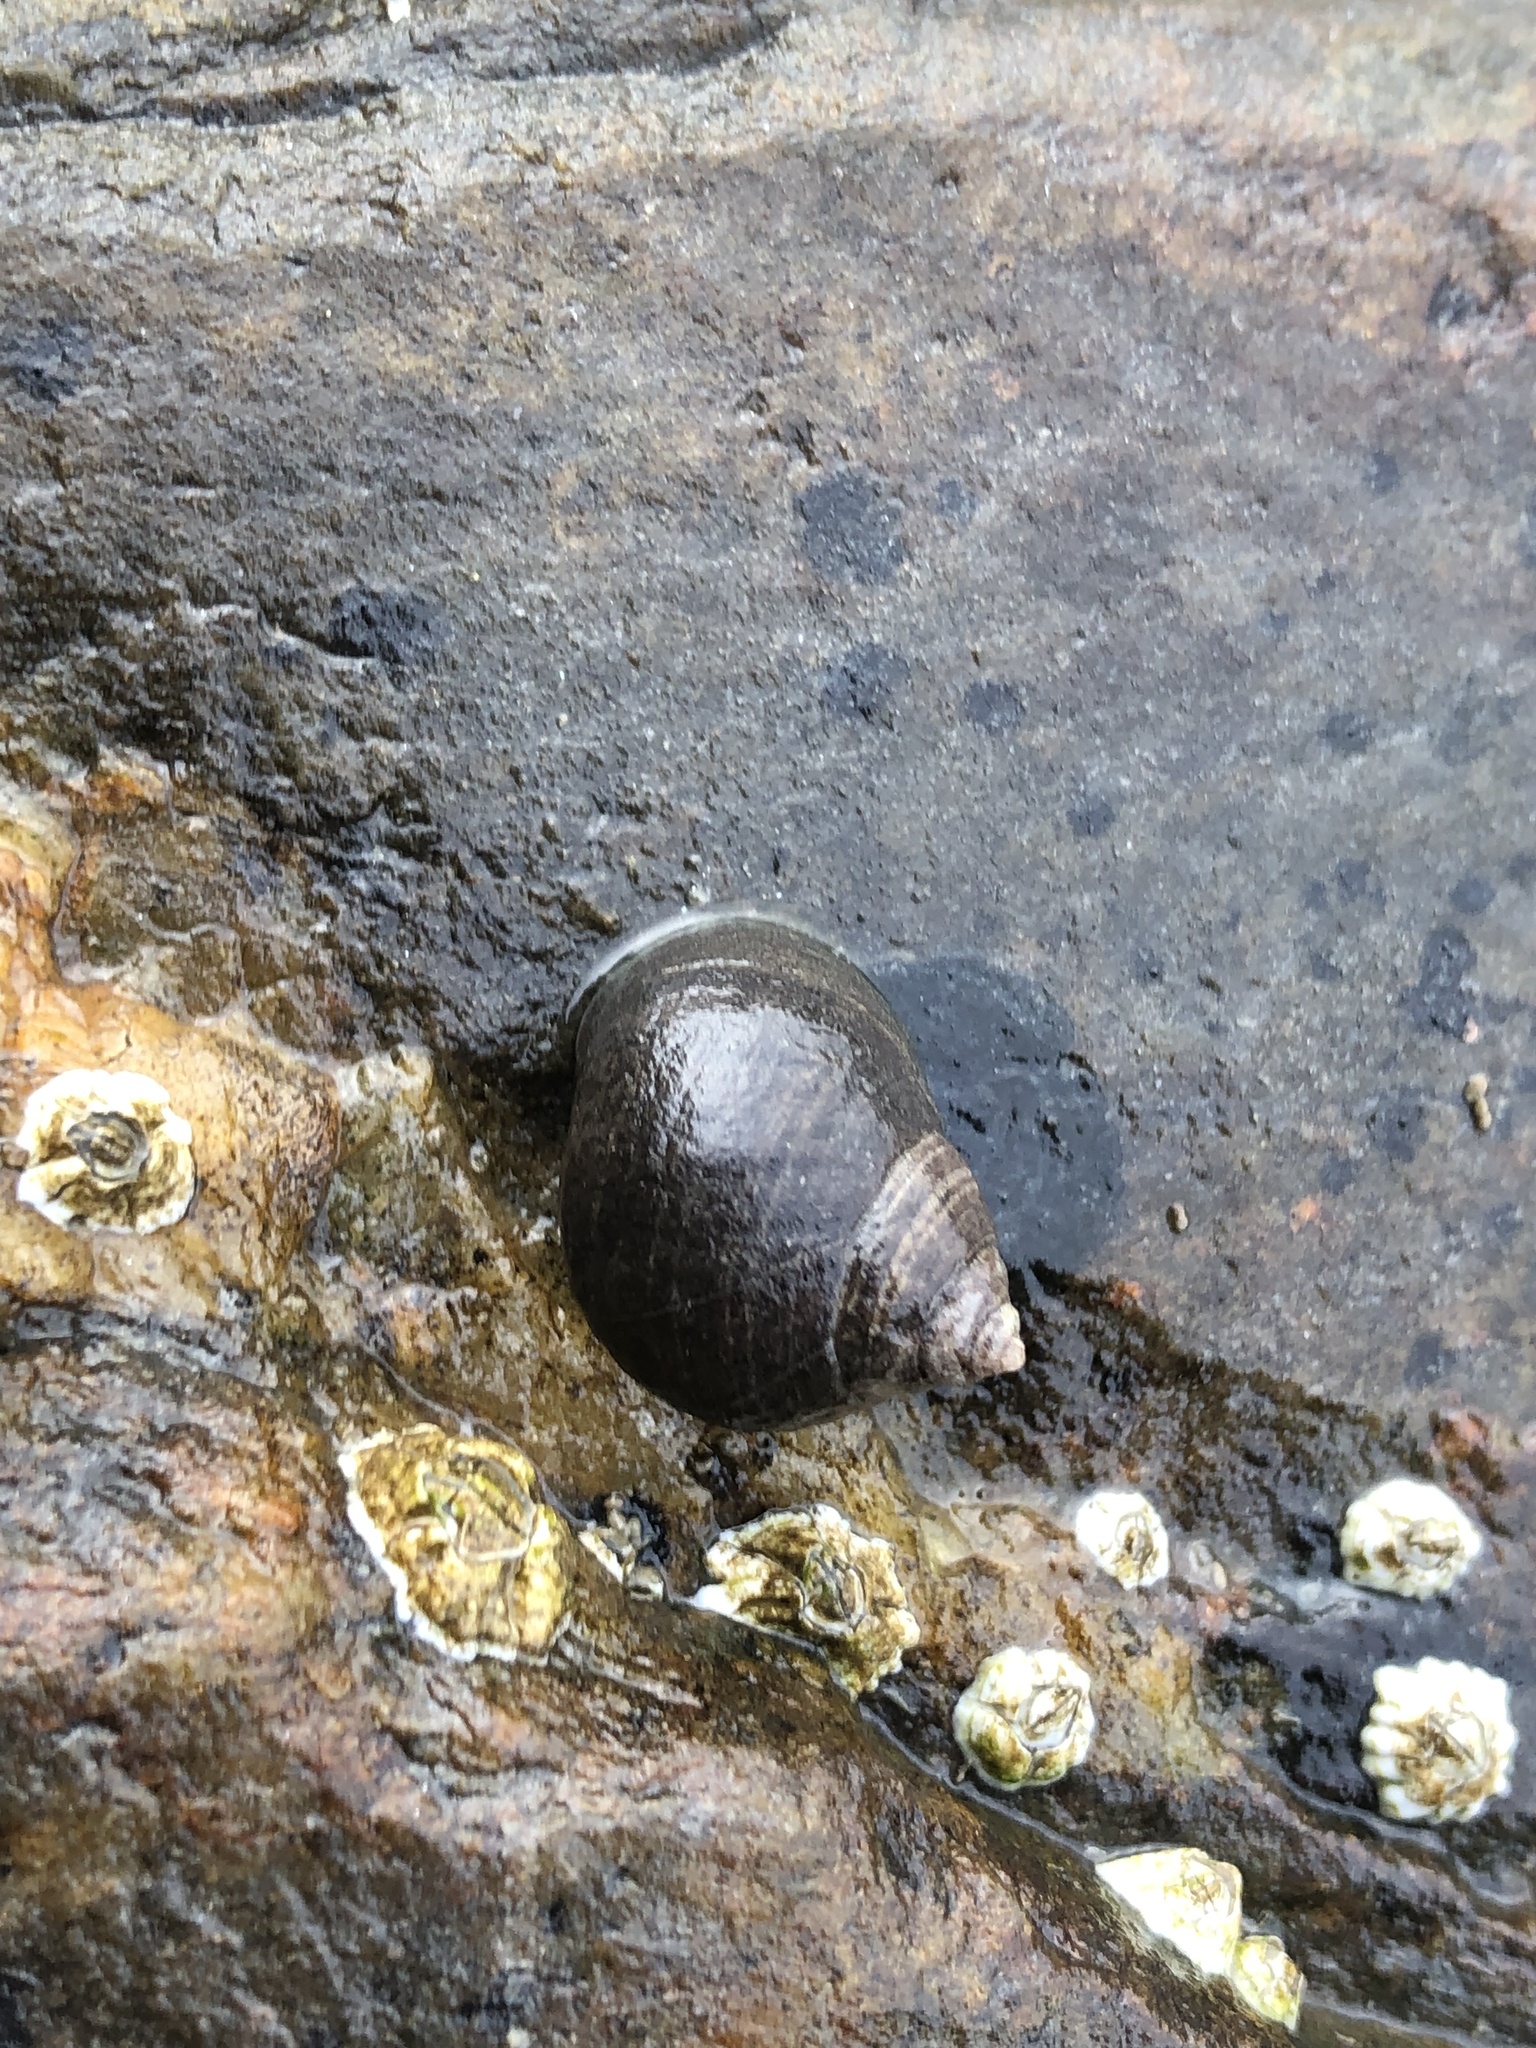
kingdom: Animalia
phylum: Mollusca
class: Gastropoda
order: Littorinimorpha
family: Littorinidae
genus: Littorina
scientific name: Littorina littorea
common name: Common periwinkle
